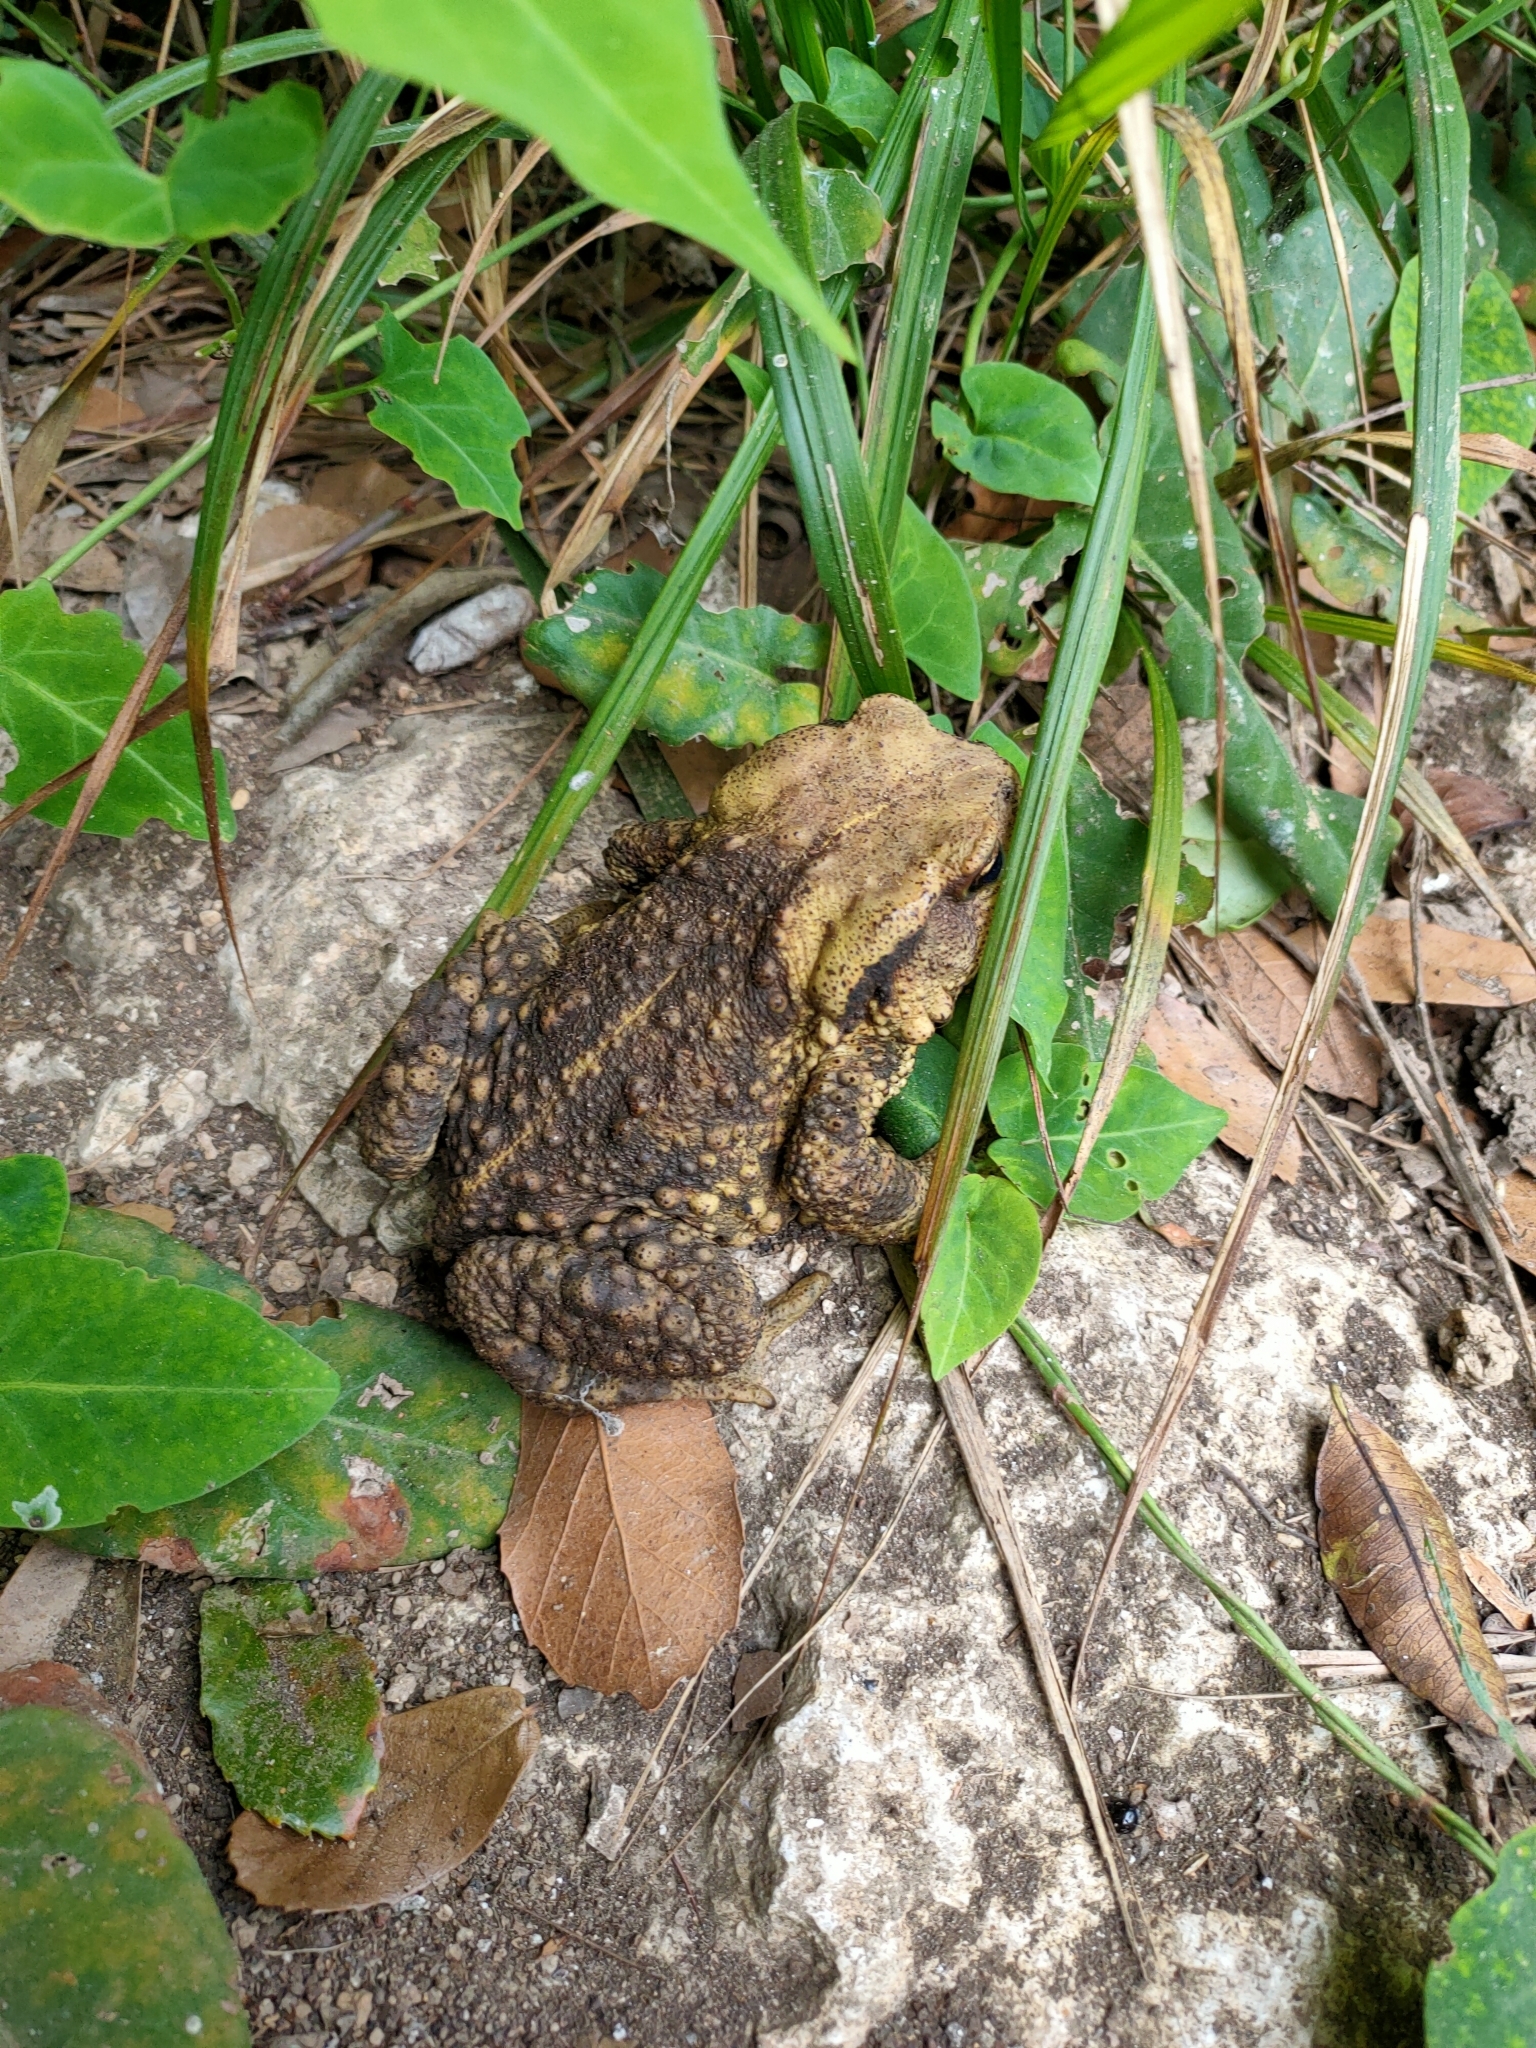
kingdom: Animalia
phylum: Chordata
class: Amphibia
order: Anura
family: Bufonidae
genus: Bufo
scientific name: Bufo gargarizans
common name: Asiatic toad
